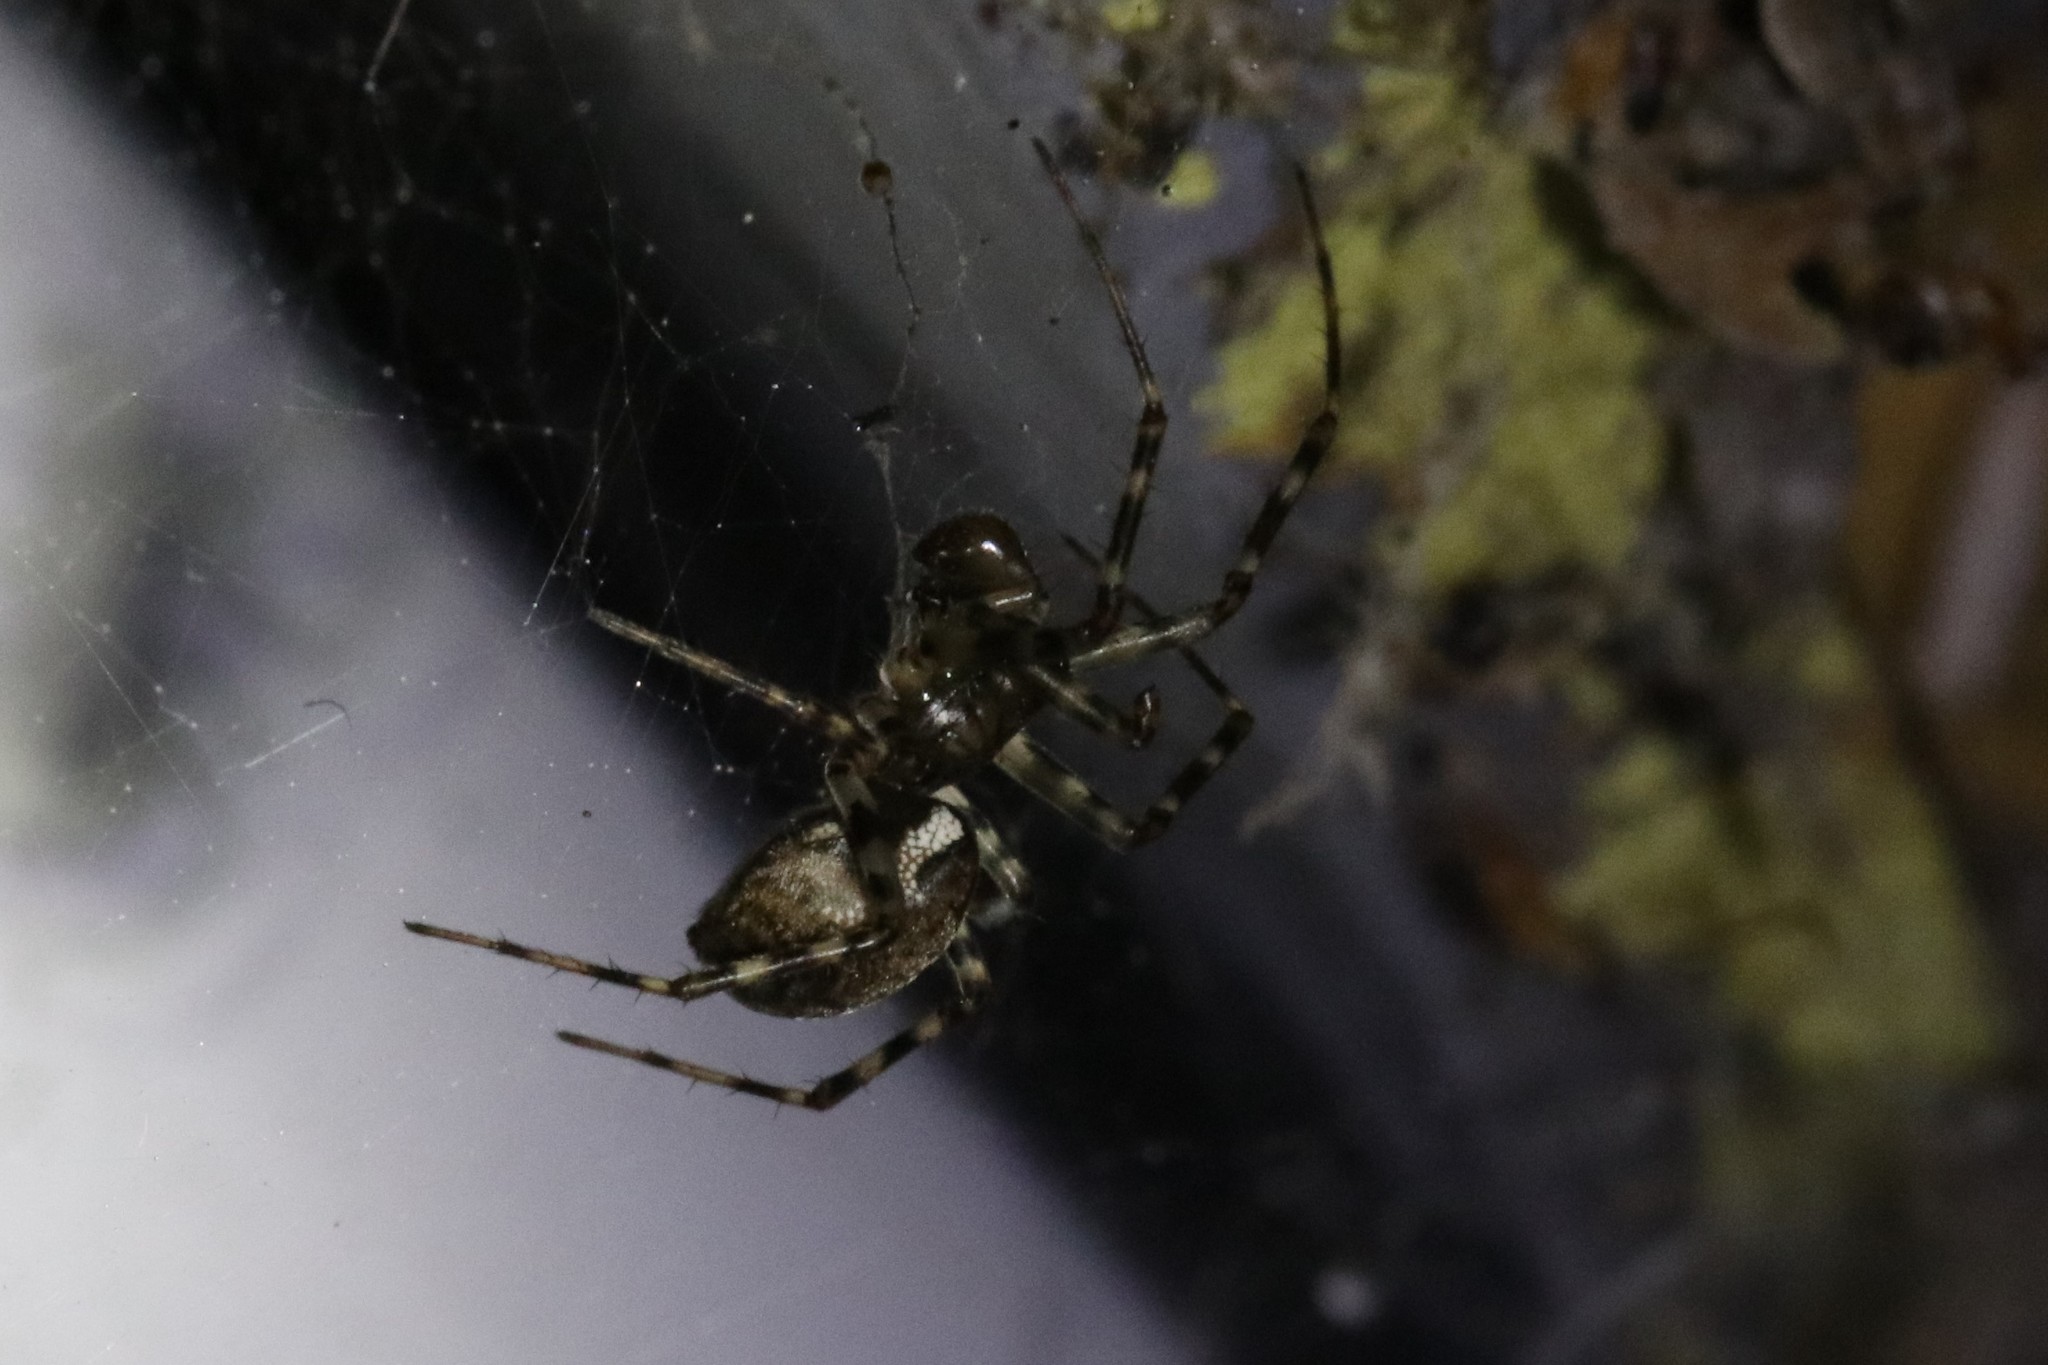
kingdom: Animalia
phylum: Arthropoda
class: Arachnida
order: Araneae
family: Linyphiidae
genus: Neriene
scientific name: Neriene montana
